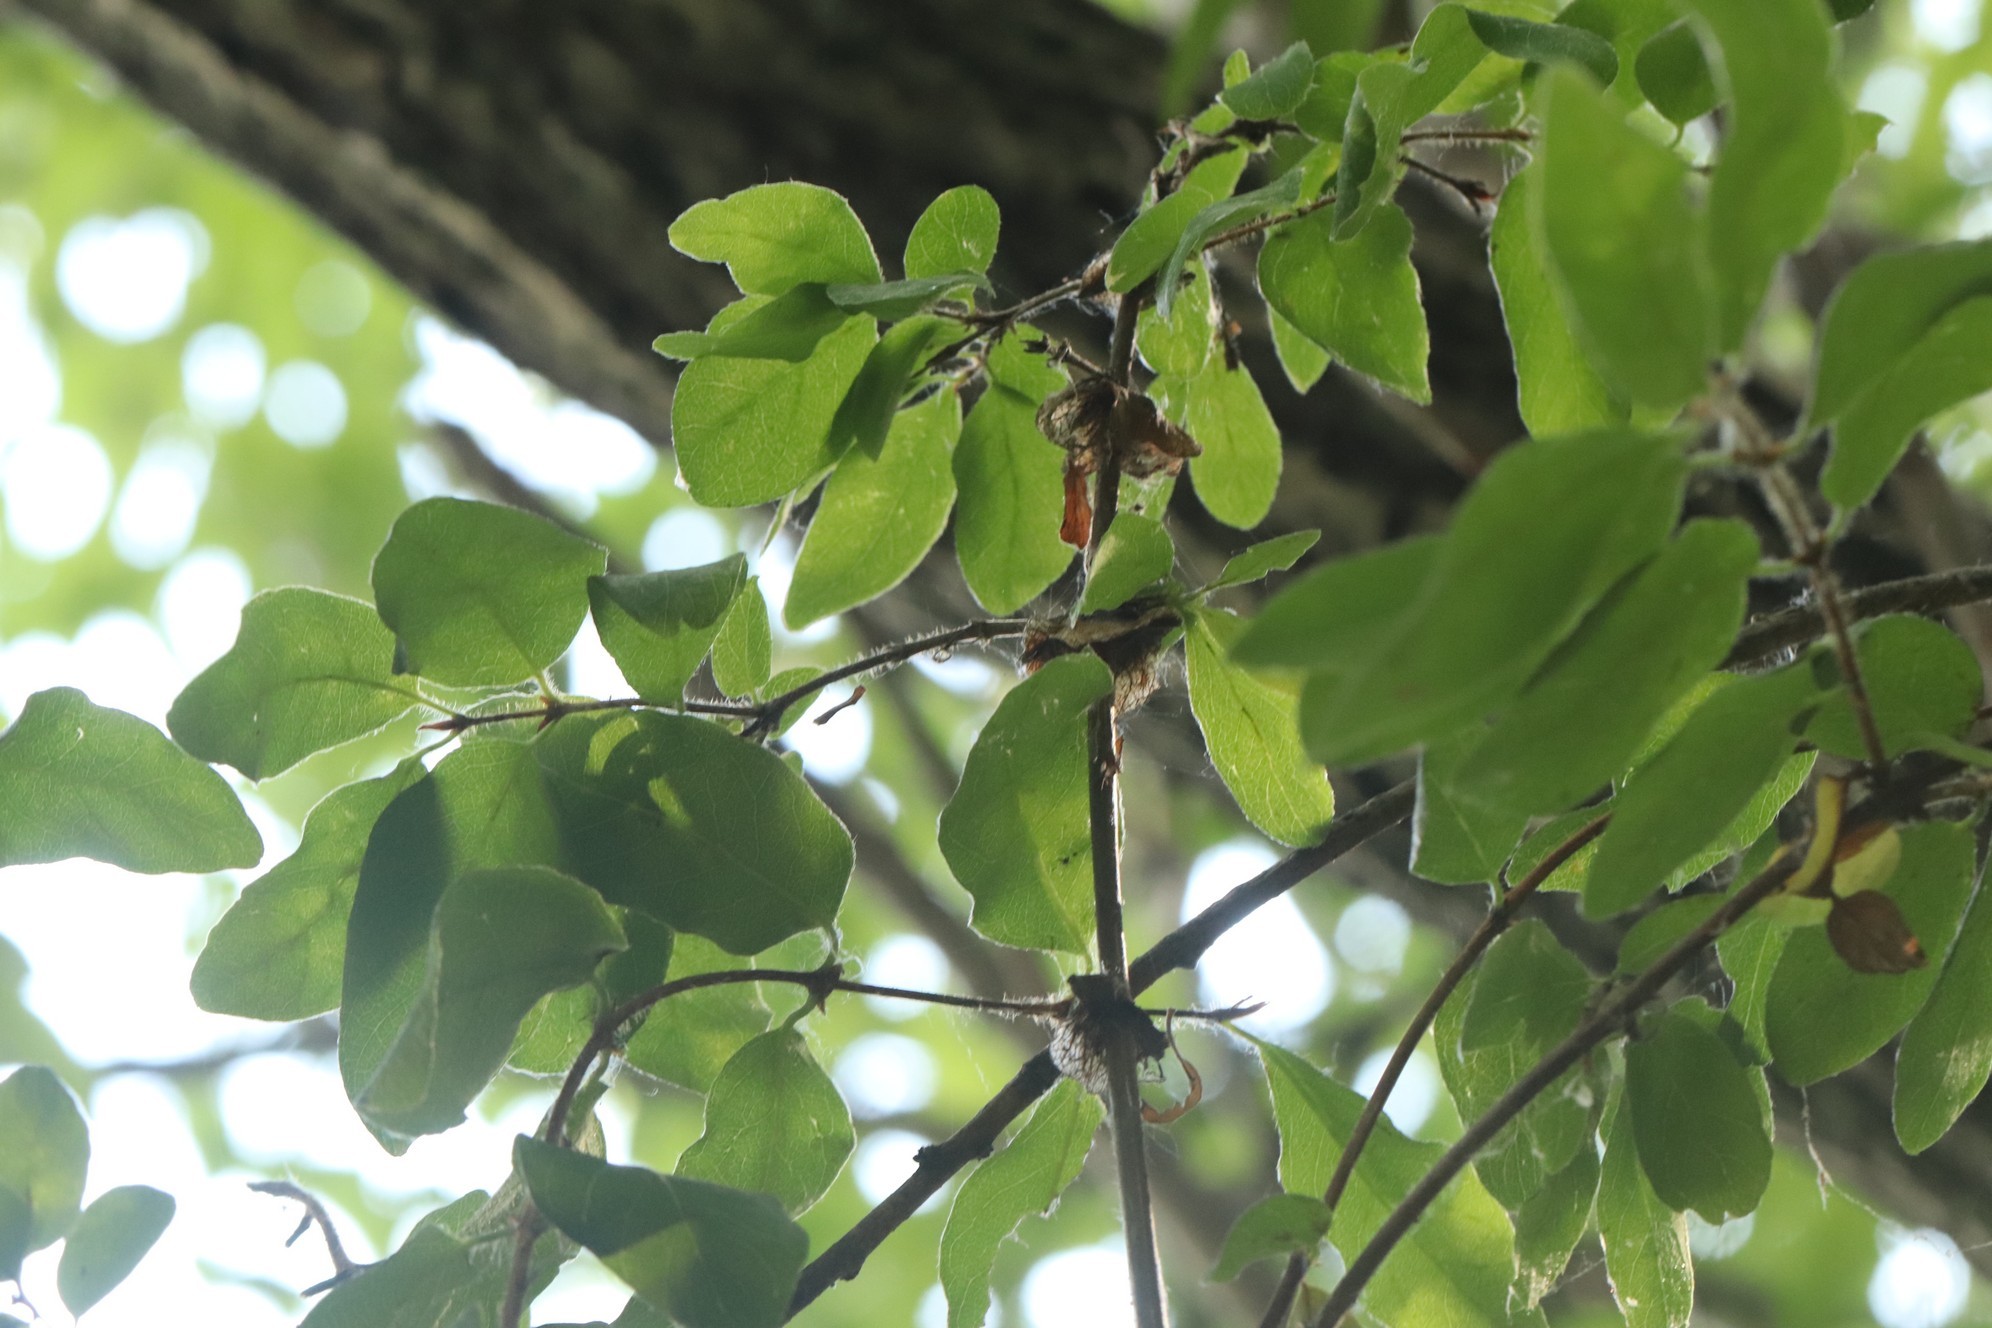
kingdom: Plantae
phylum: Tracheophyta
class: Magnoliopsida
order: Dipsacales
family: Caprifoliaceae
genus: Lonicera
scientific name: Lonicera caerulea
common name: Blue honeysuckle
